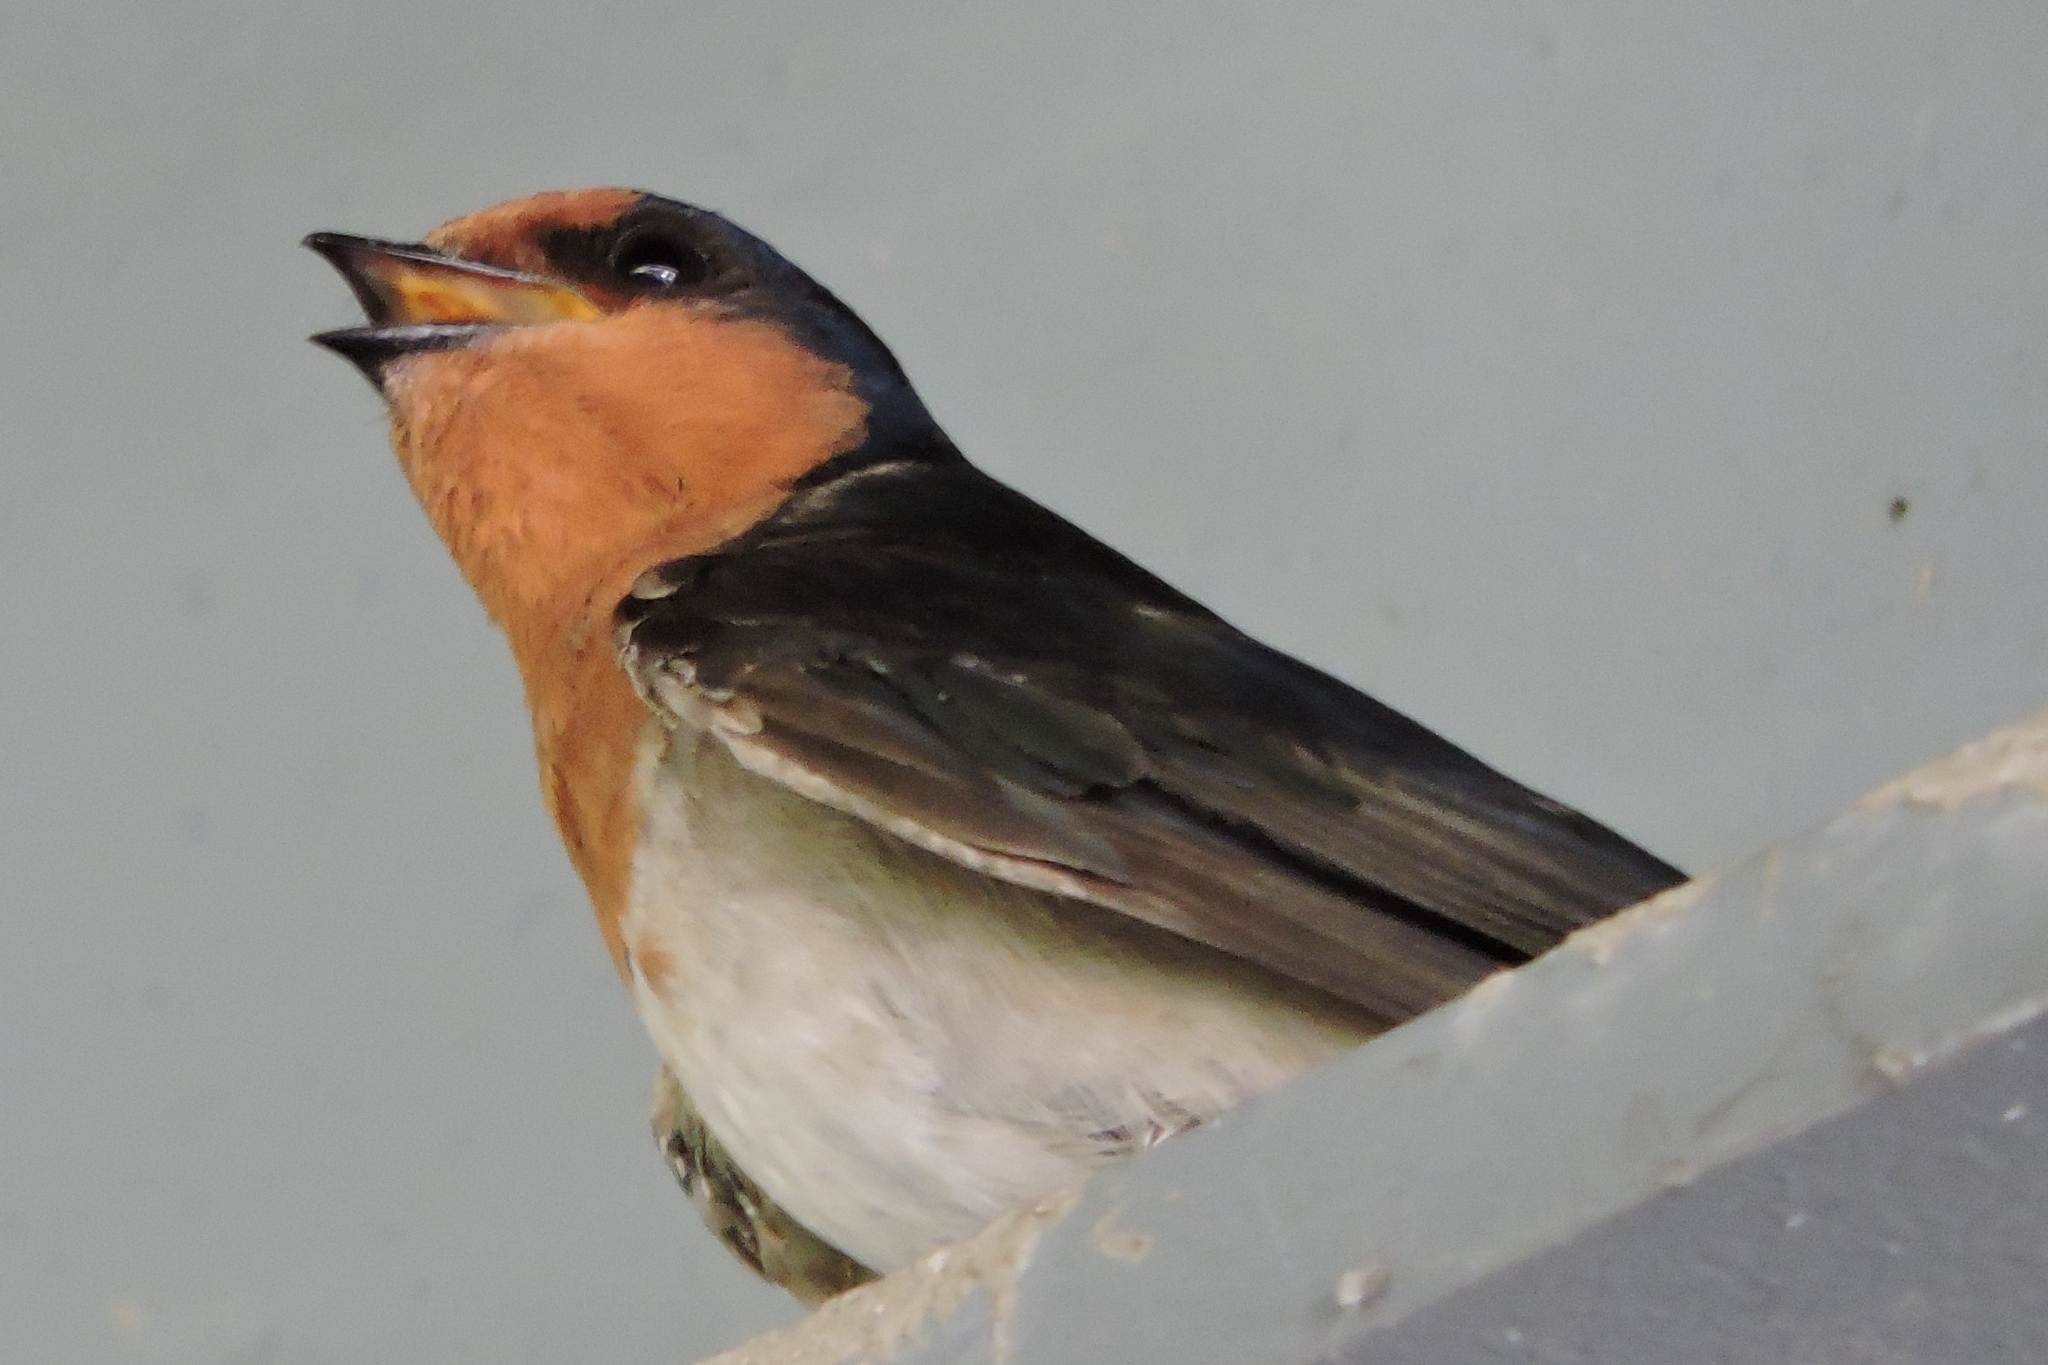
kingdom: Animalia
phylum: Chordata
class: Aves
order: Passeriformes
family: Hirundinidae
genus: Hirundo
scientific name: Hirundo neoxena
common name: Welcome swallow
